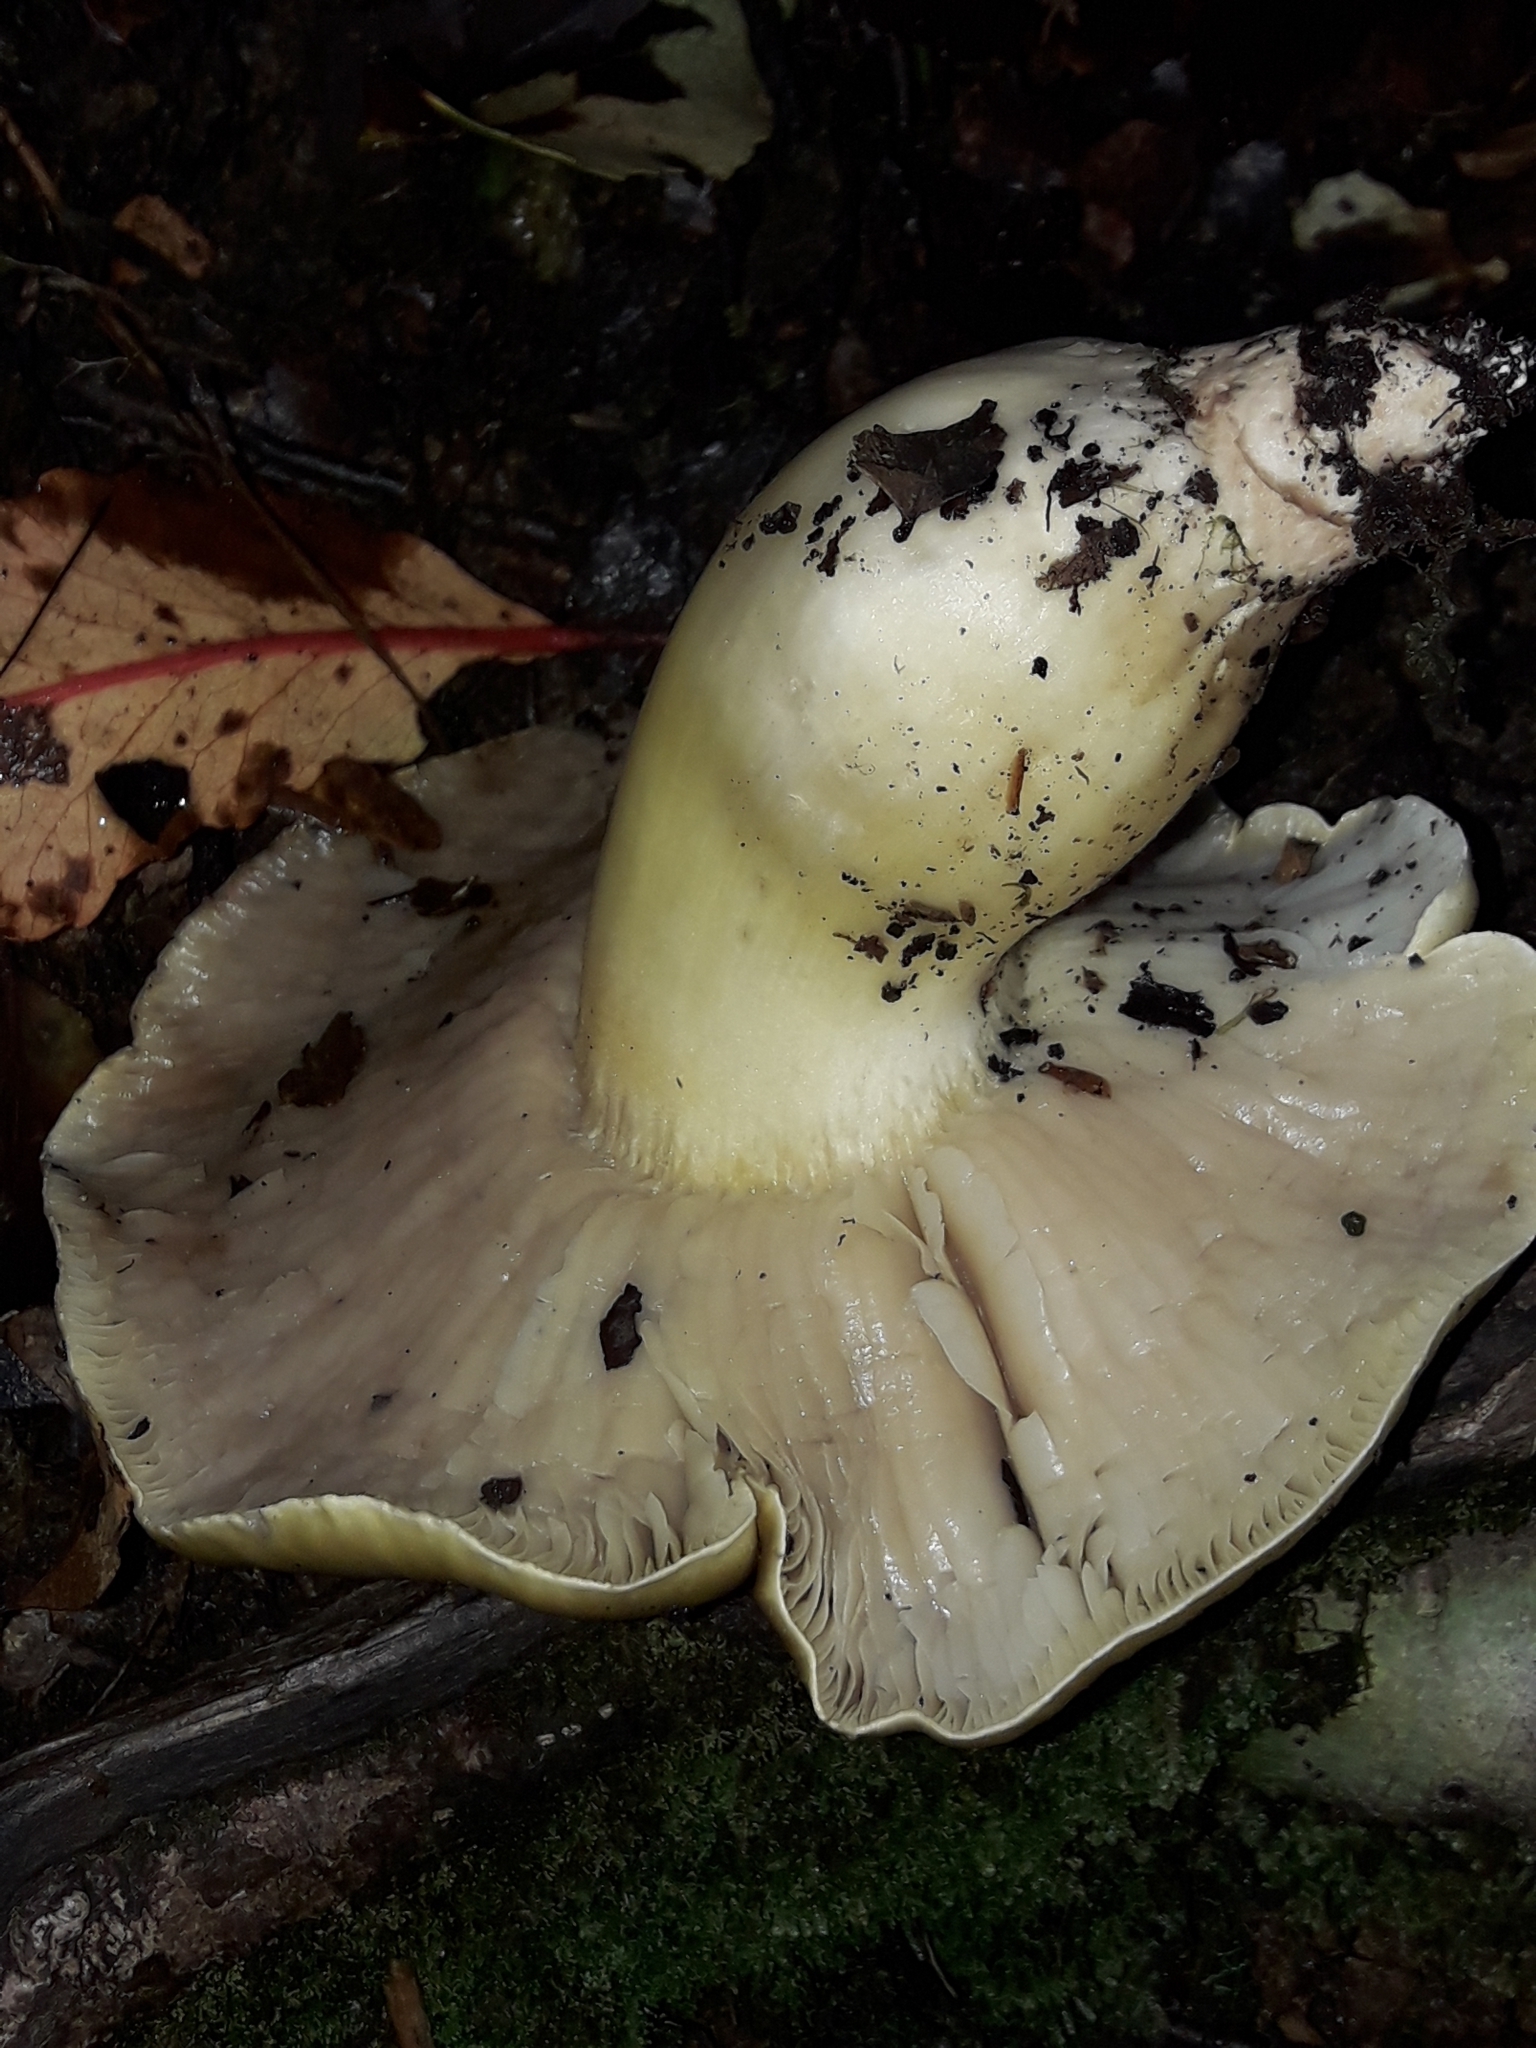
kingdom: Fungi
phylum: Basidiomycota
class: Agaricomycetes
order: Agaricales
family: Tricholomataceae
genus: Tricholoma
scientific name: Tricholoma viridiolivaceum
